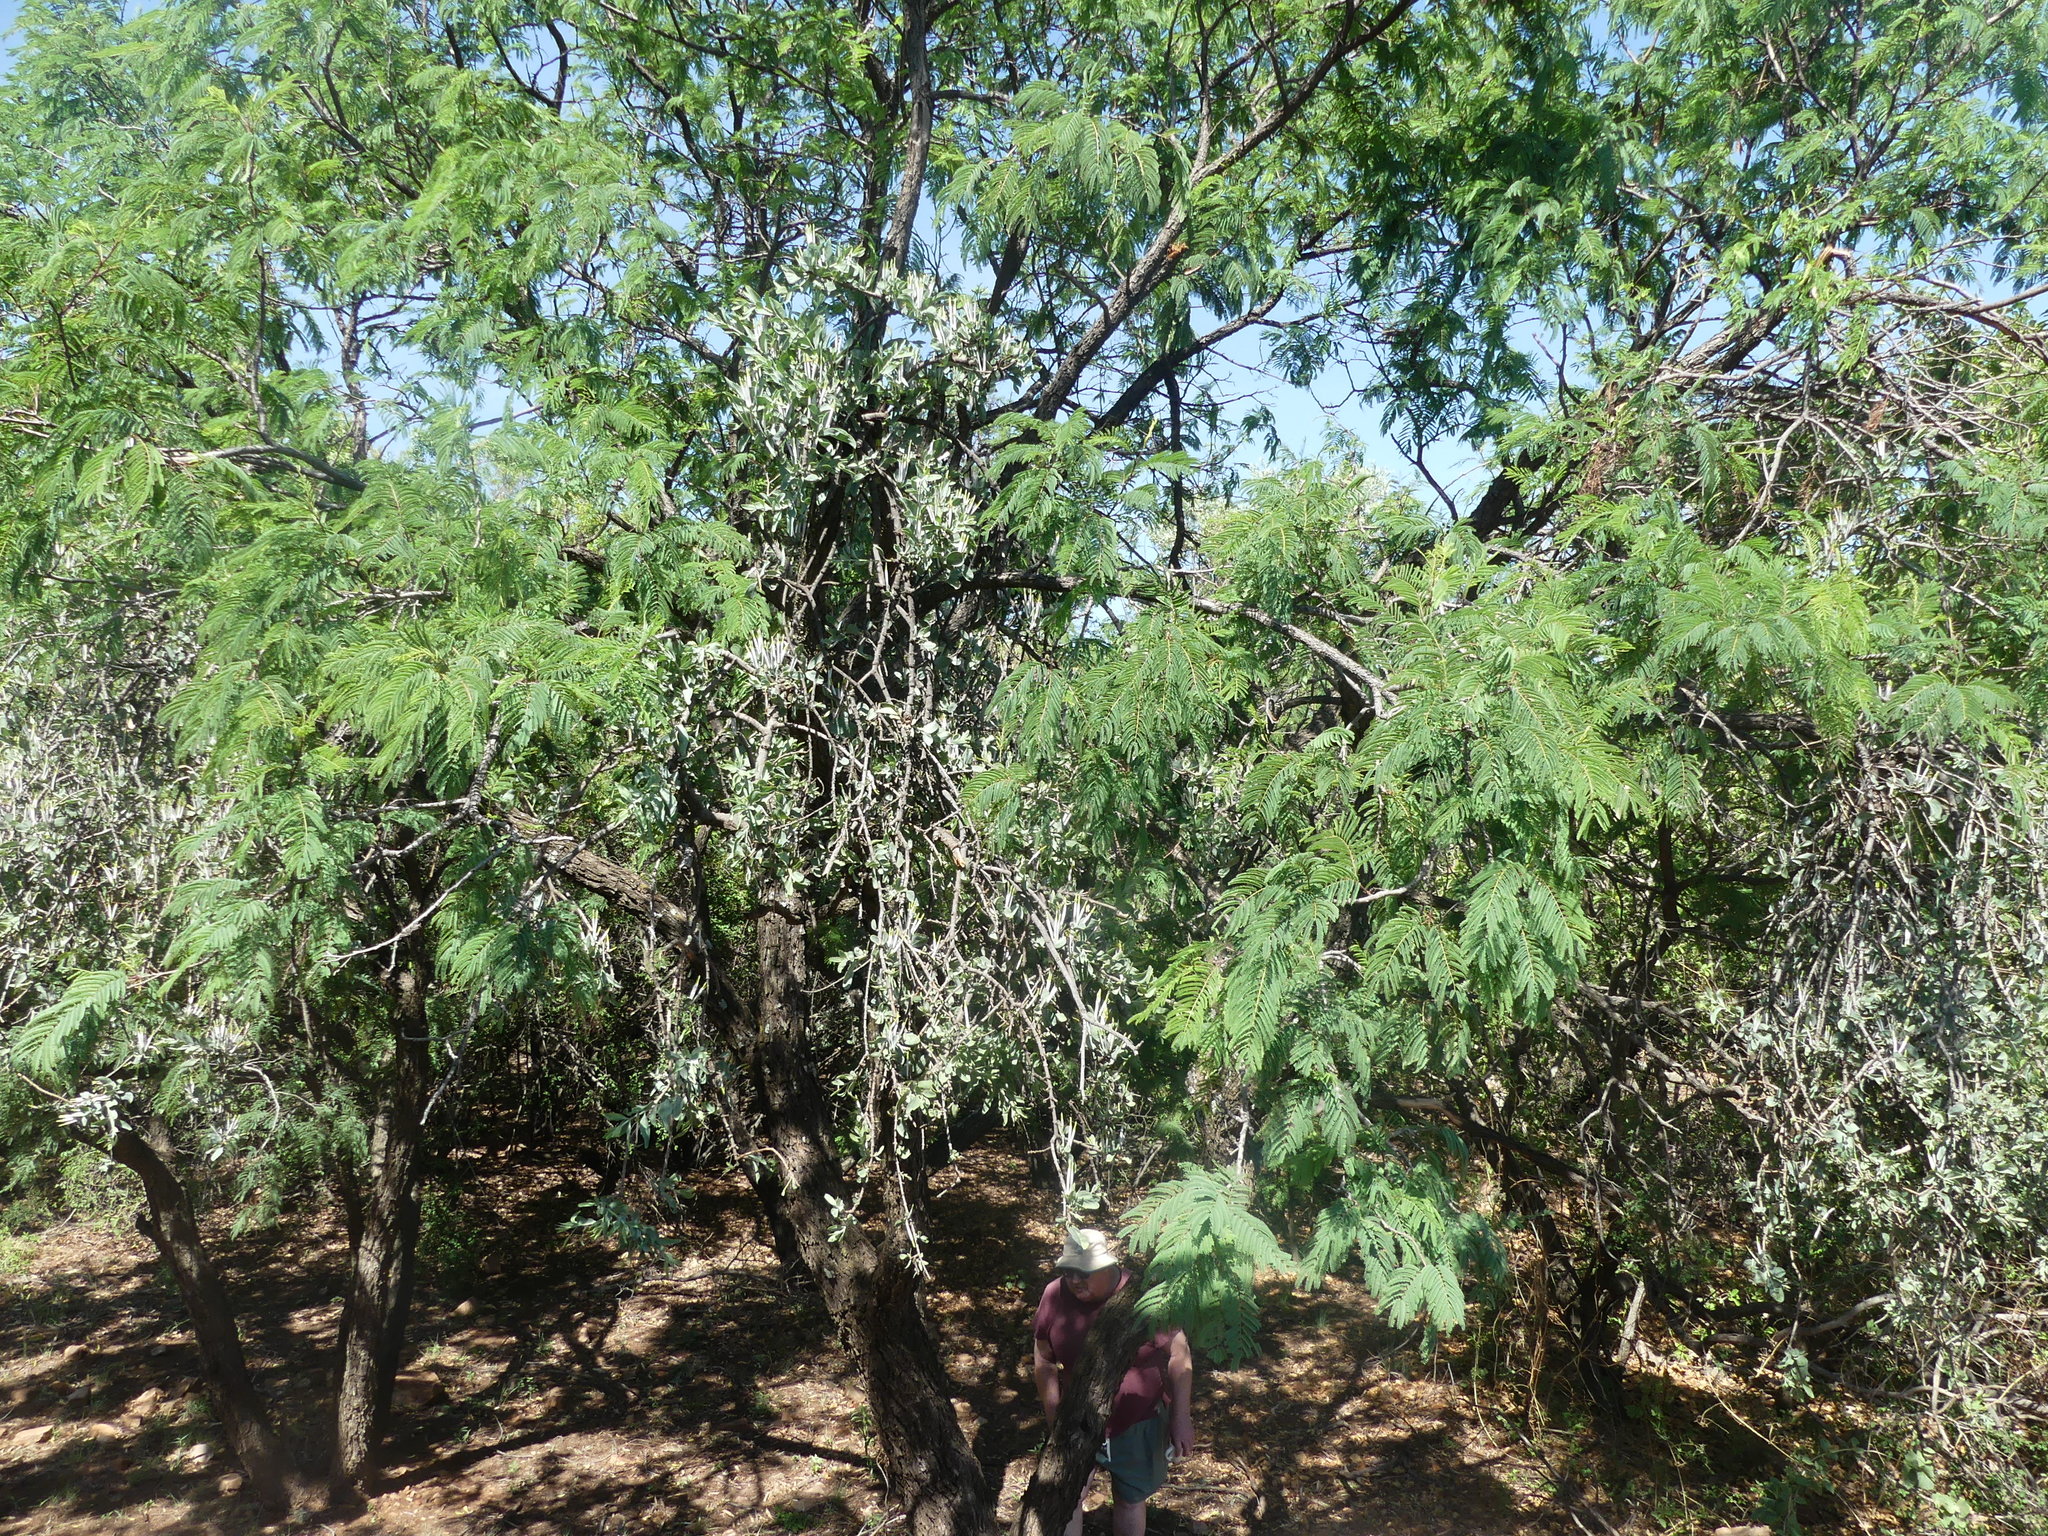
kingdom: Plantae
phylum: Tracheophyta
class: Magnoliopsida
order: Santalales
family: Loranthaceae
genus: Agelanthus
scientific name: Agelanthus natalitius
